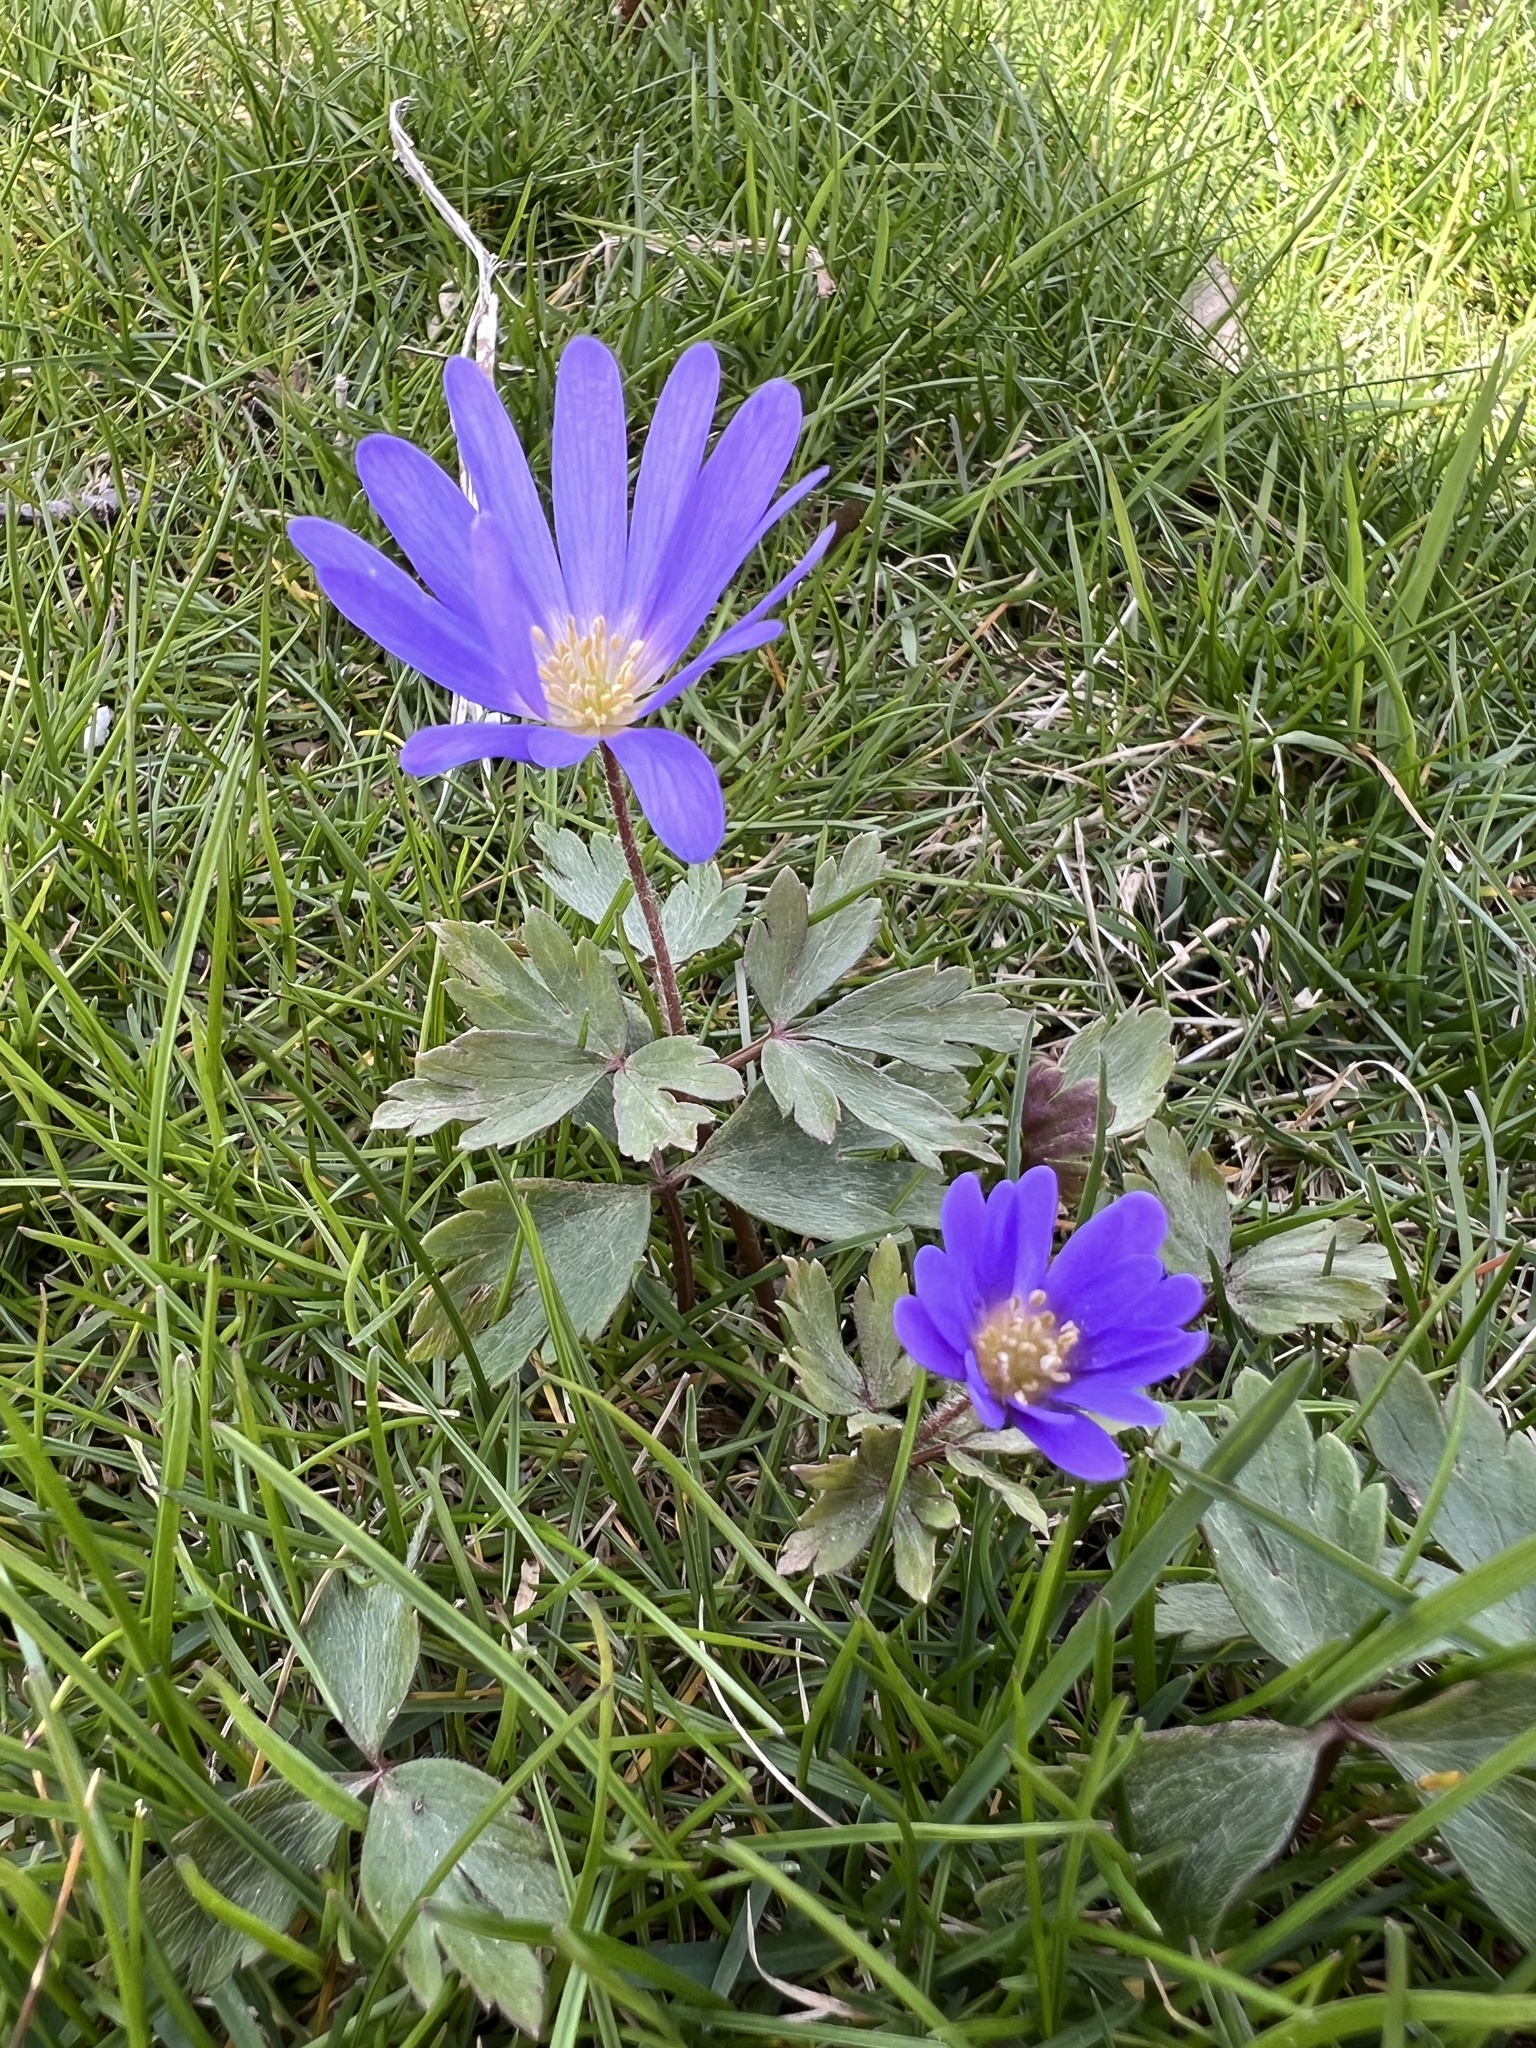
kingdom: Plantae
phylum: Tracheophyta
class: Magnoliopsida
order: Ranunculales
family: Ranunculaceae
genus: Anemone
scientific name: Anemone blanda
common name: Balkan anemone
